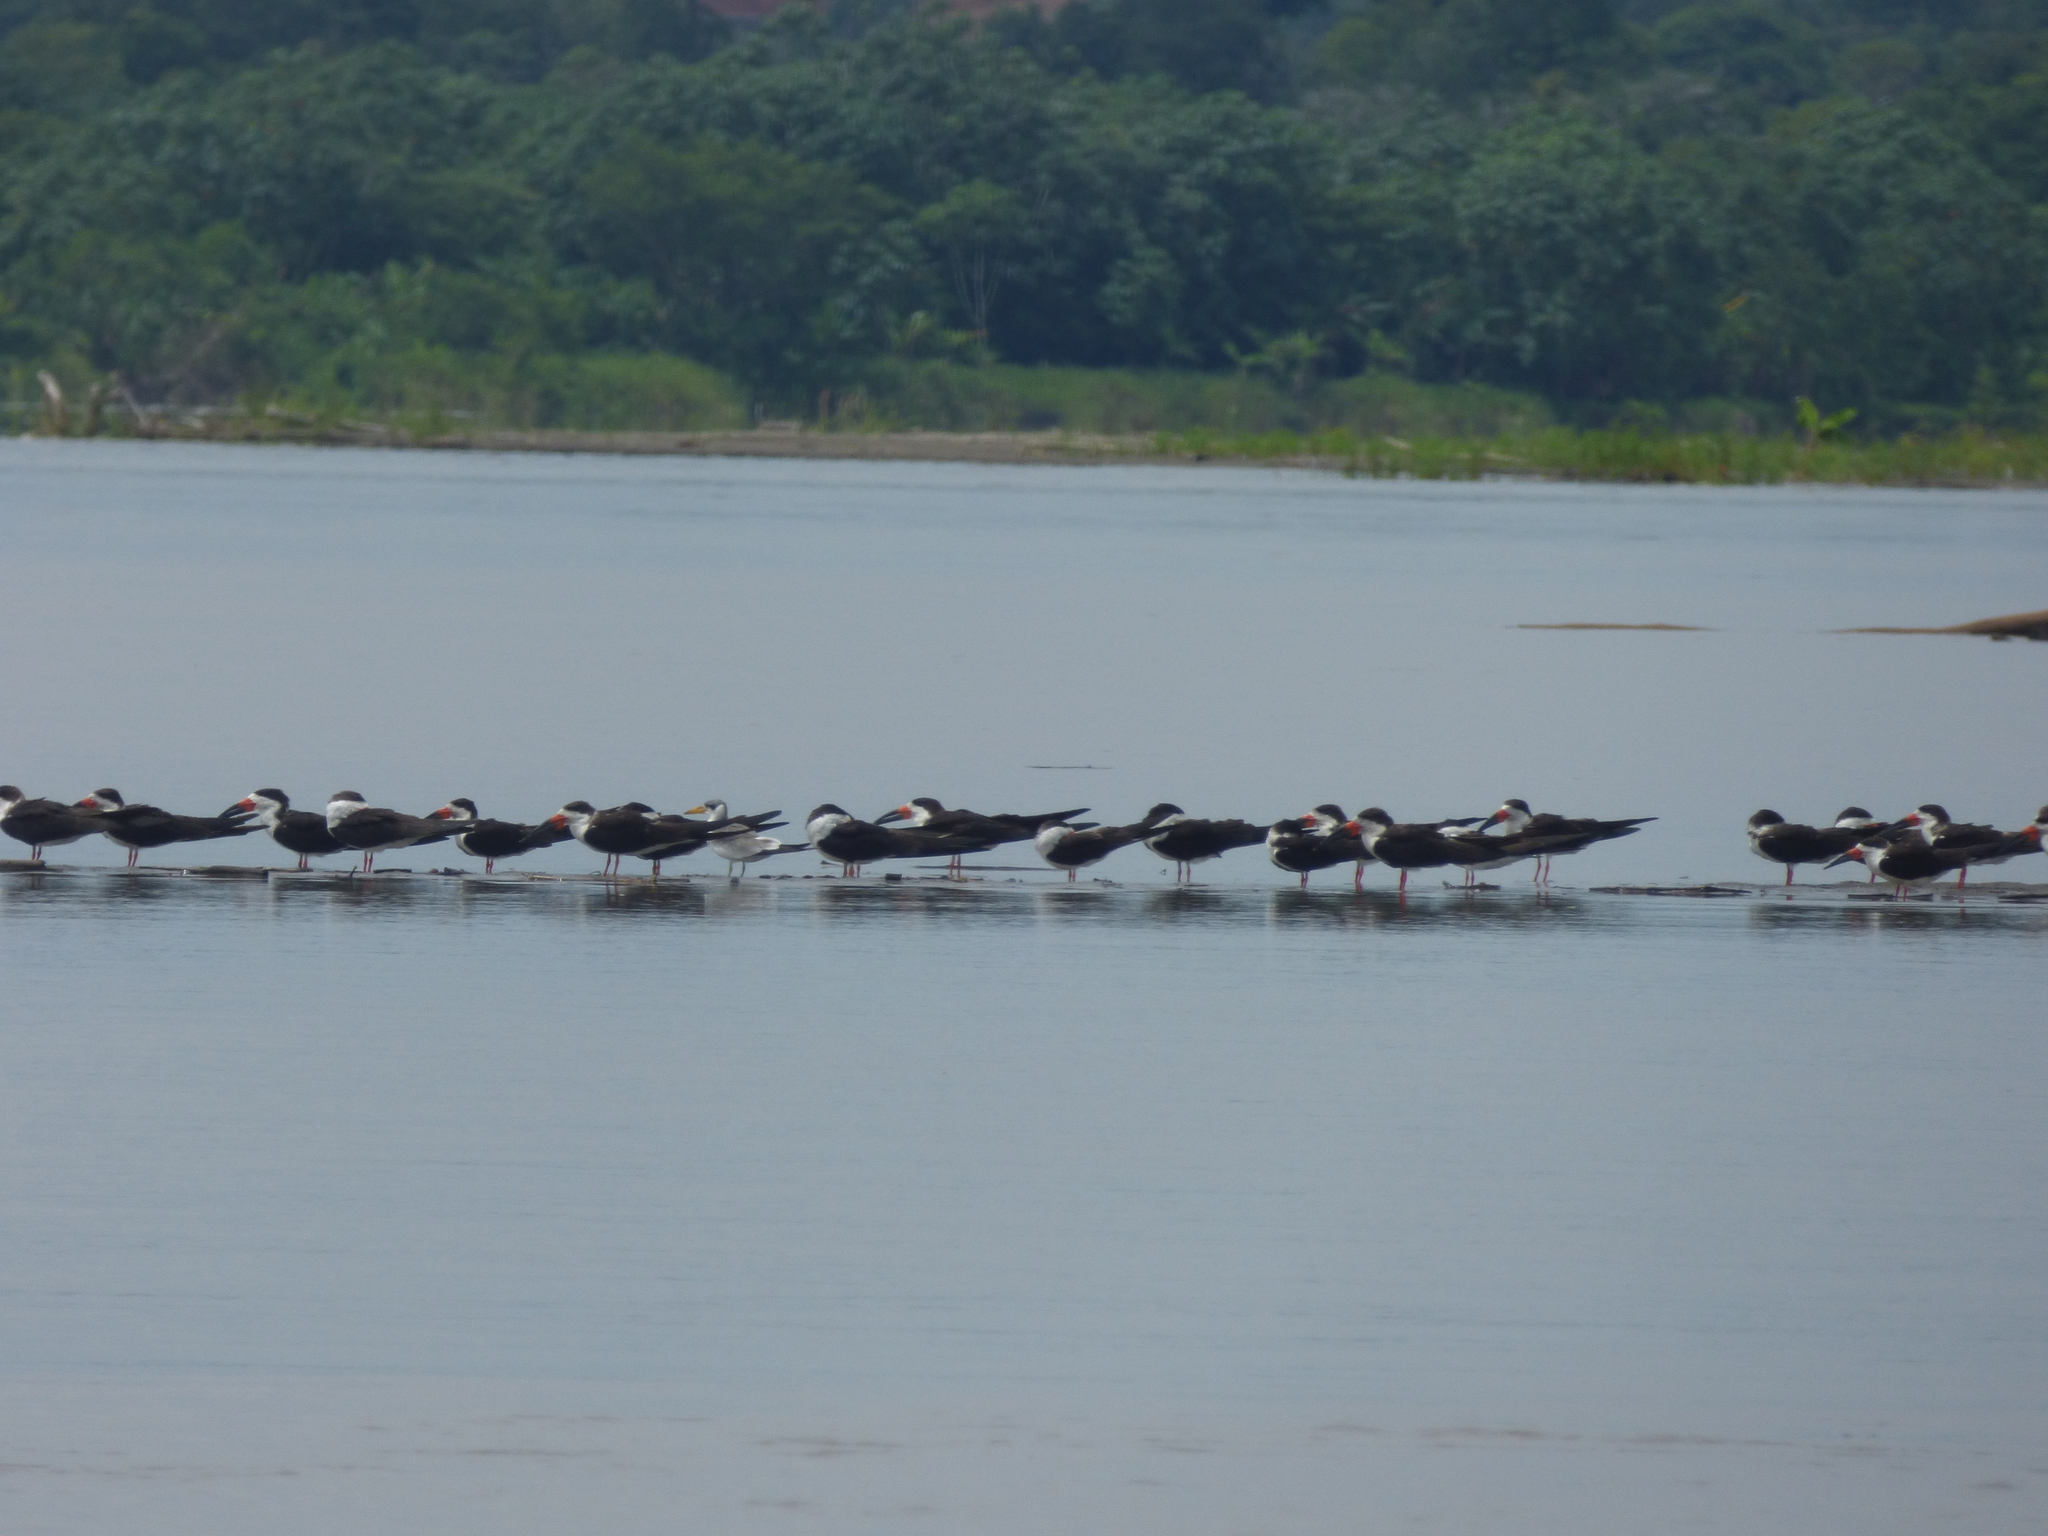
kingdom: Animalia
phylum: Chordata
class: Aves
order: Charadriiformes
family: Laridae
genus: Rynchops
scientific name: Rynchops niger
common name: Black skimmer
